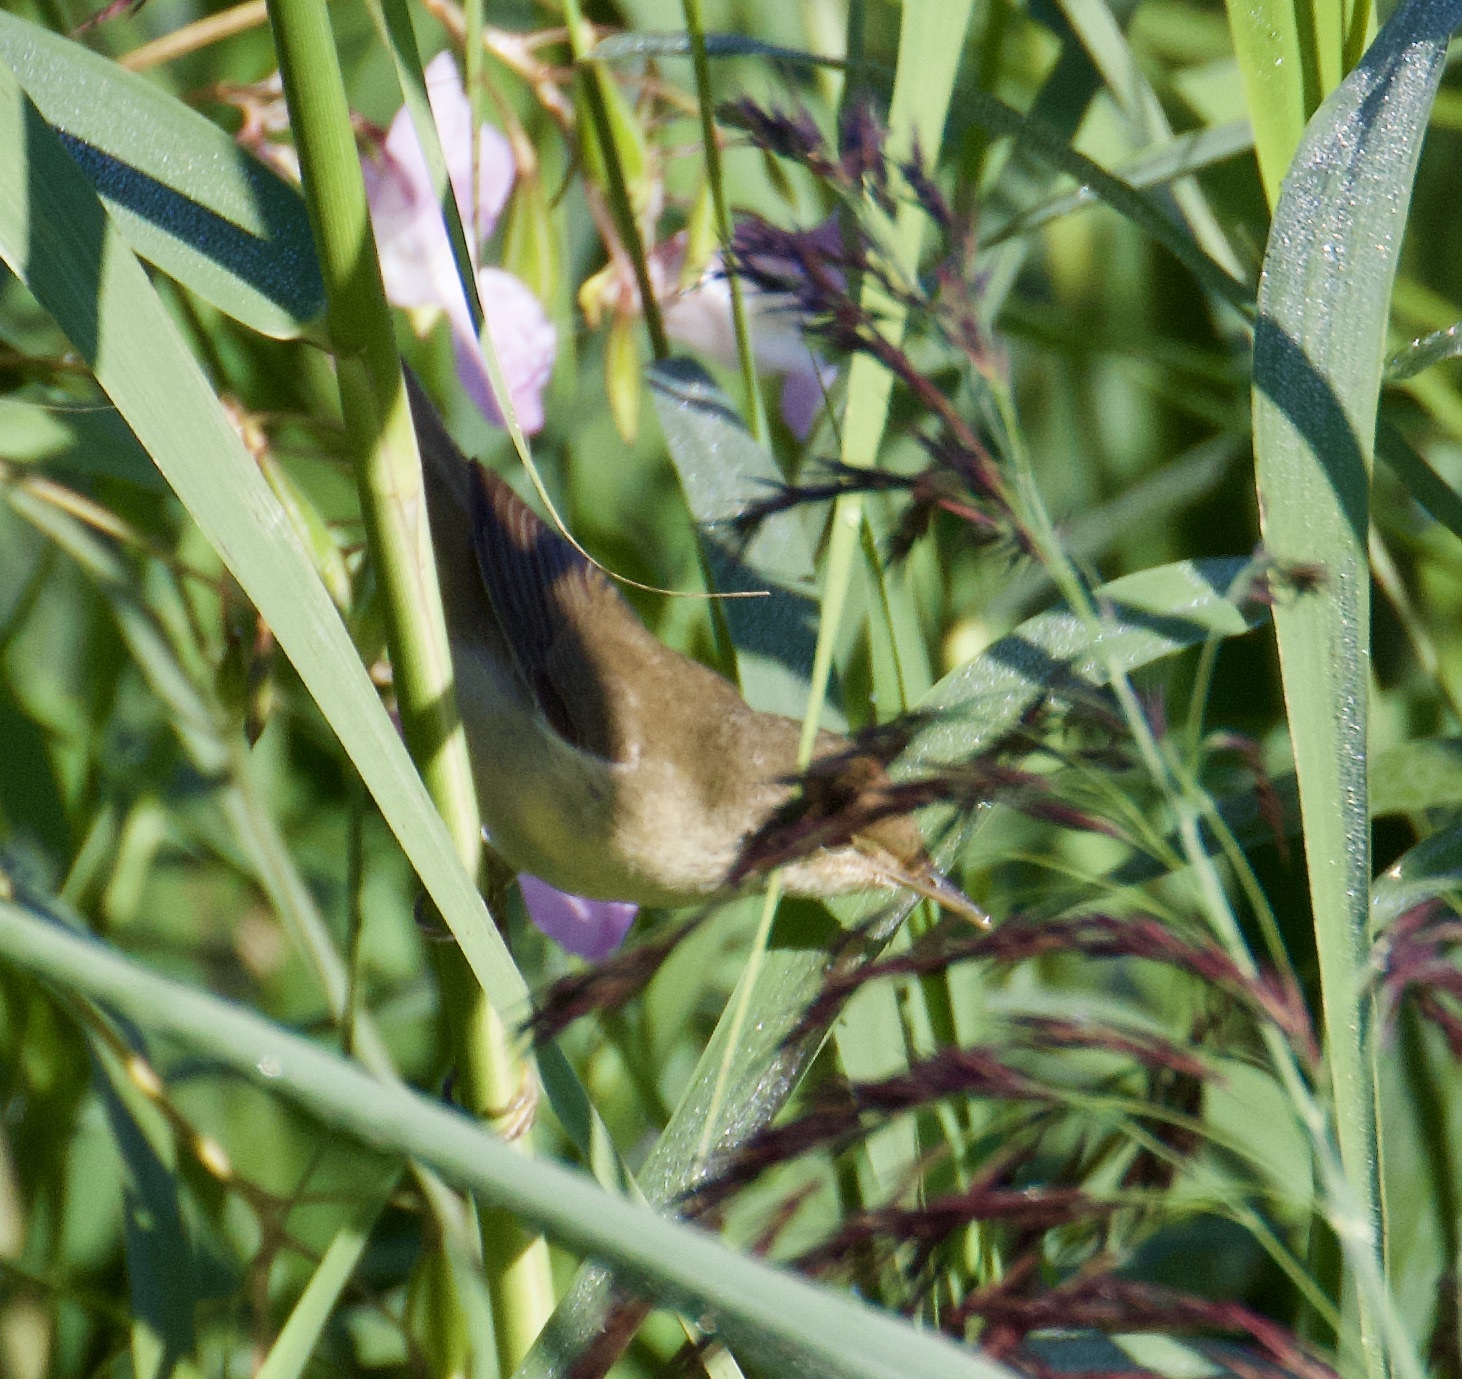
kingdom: Animalia
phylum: Chordata
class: Aves
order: Passeriformes
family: Acrocephalidae
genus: Acrocephalus
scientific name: Acrocephalus scirpaceus
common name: Eurasian reed warbler
